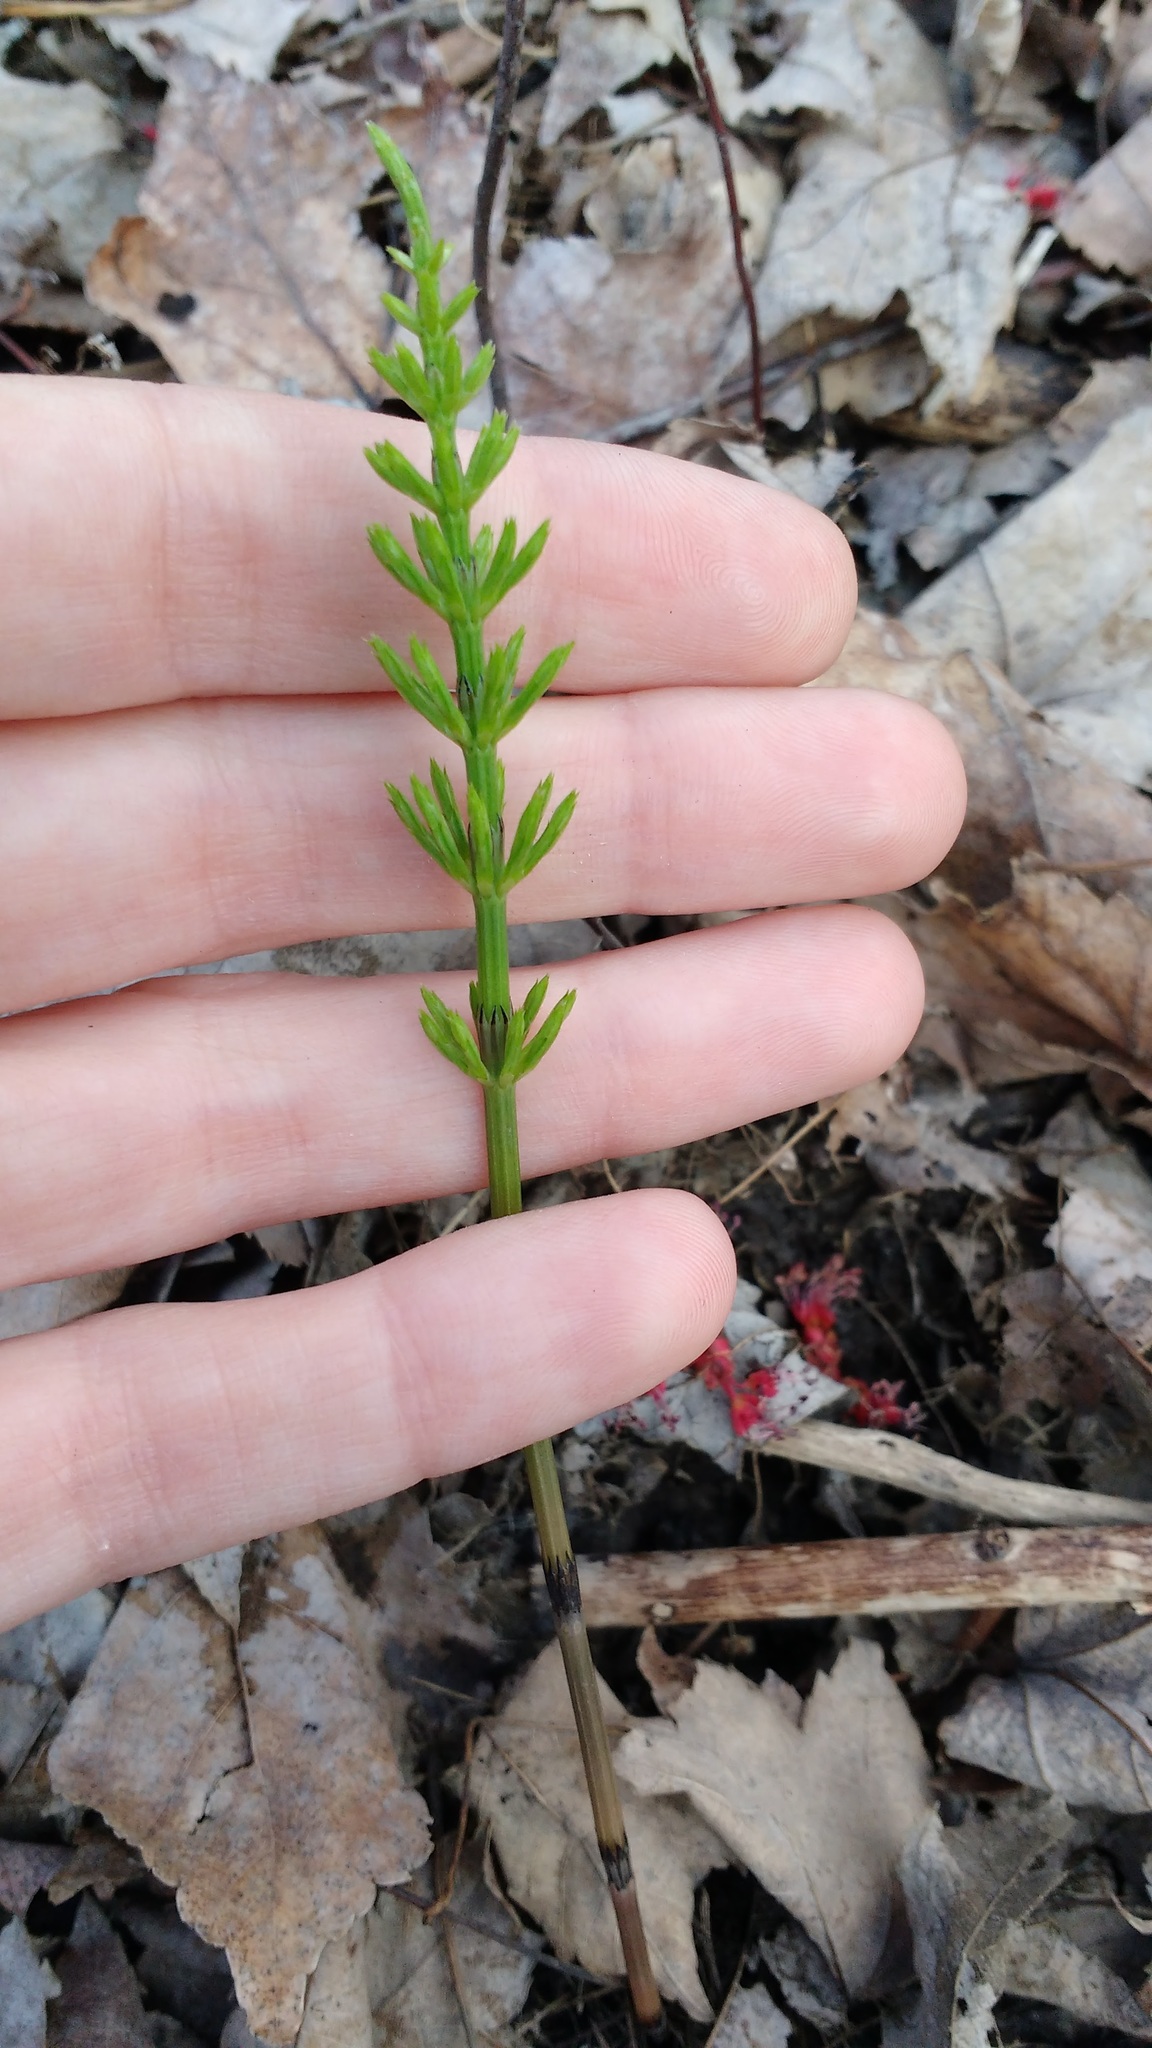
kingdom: Plantae
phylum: Tracheophyta
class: Polypodiopsida
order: Equisetales
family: Equisetaceae
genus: Equisetum
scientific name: Equisetum arvense
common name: Field horsetail
